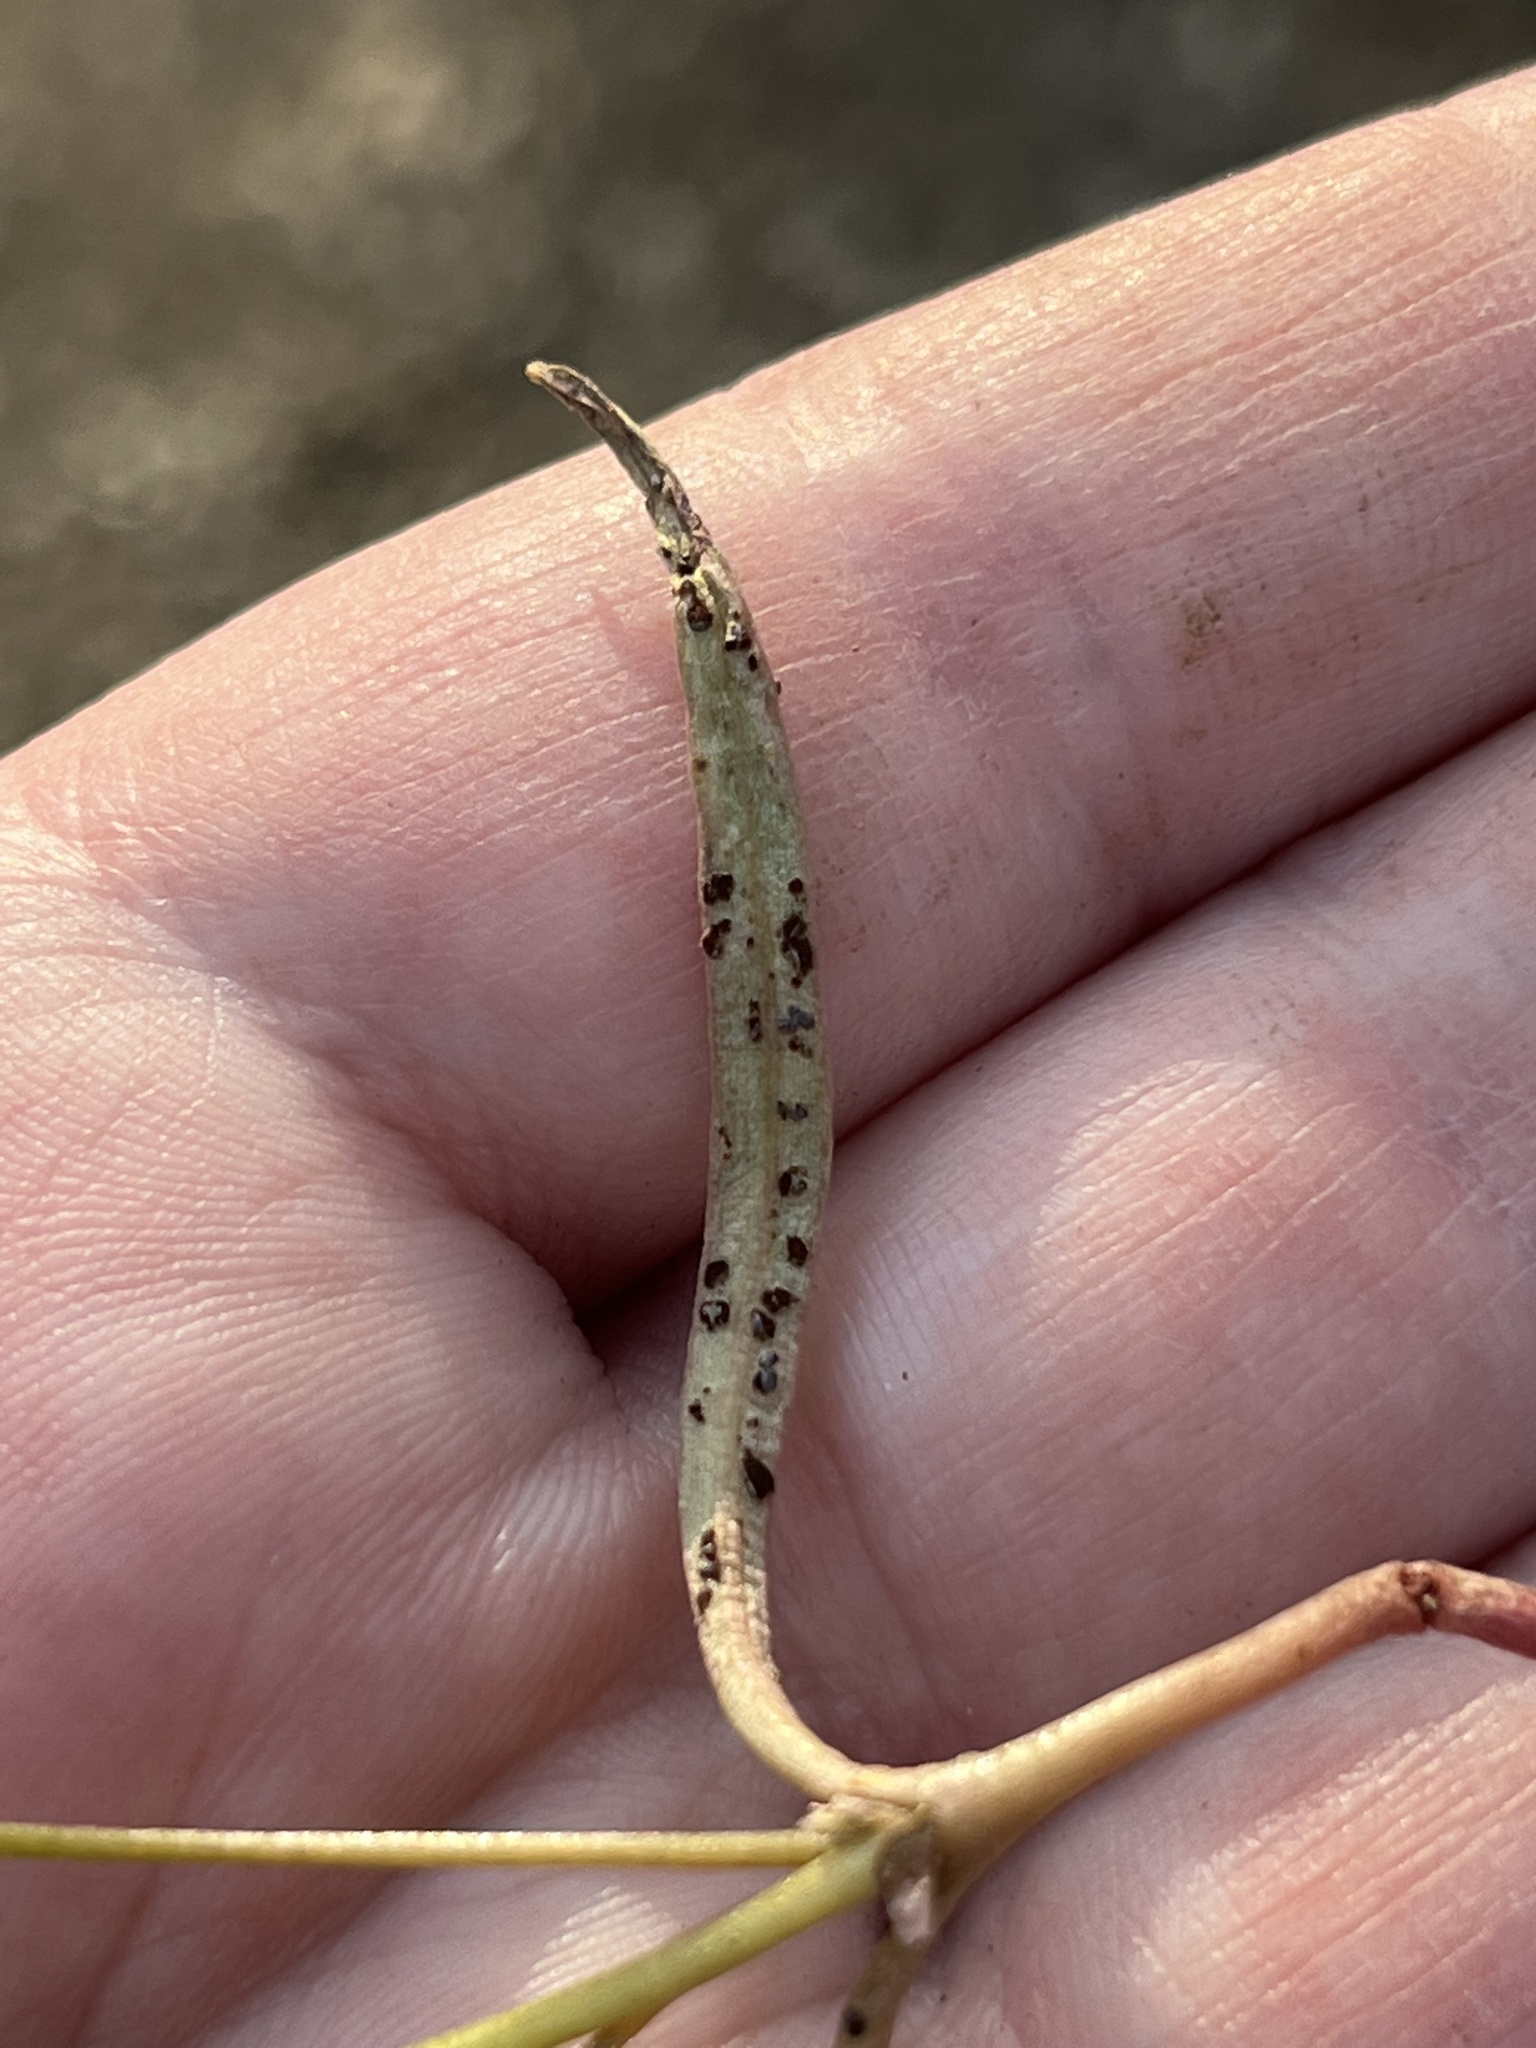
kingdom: Fungi
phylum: Basidiomycota
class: Pucciniomycetes
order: Pucciniales
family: Pucciniaceae
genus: Puccinia
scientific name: Puccinia mariae-wilsoniae
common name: Spring beauty rust
